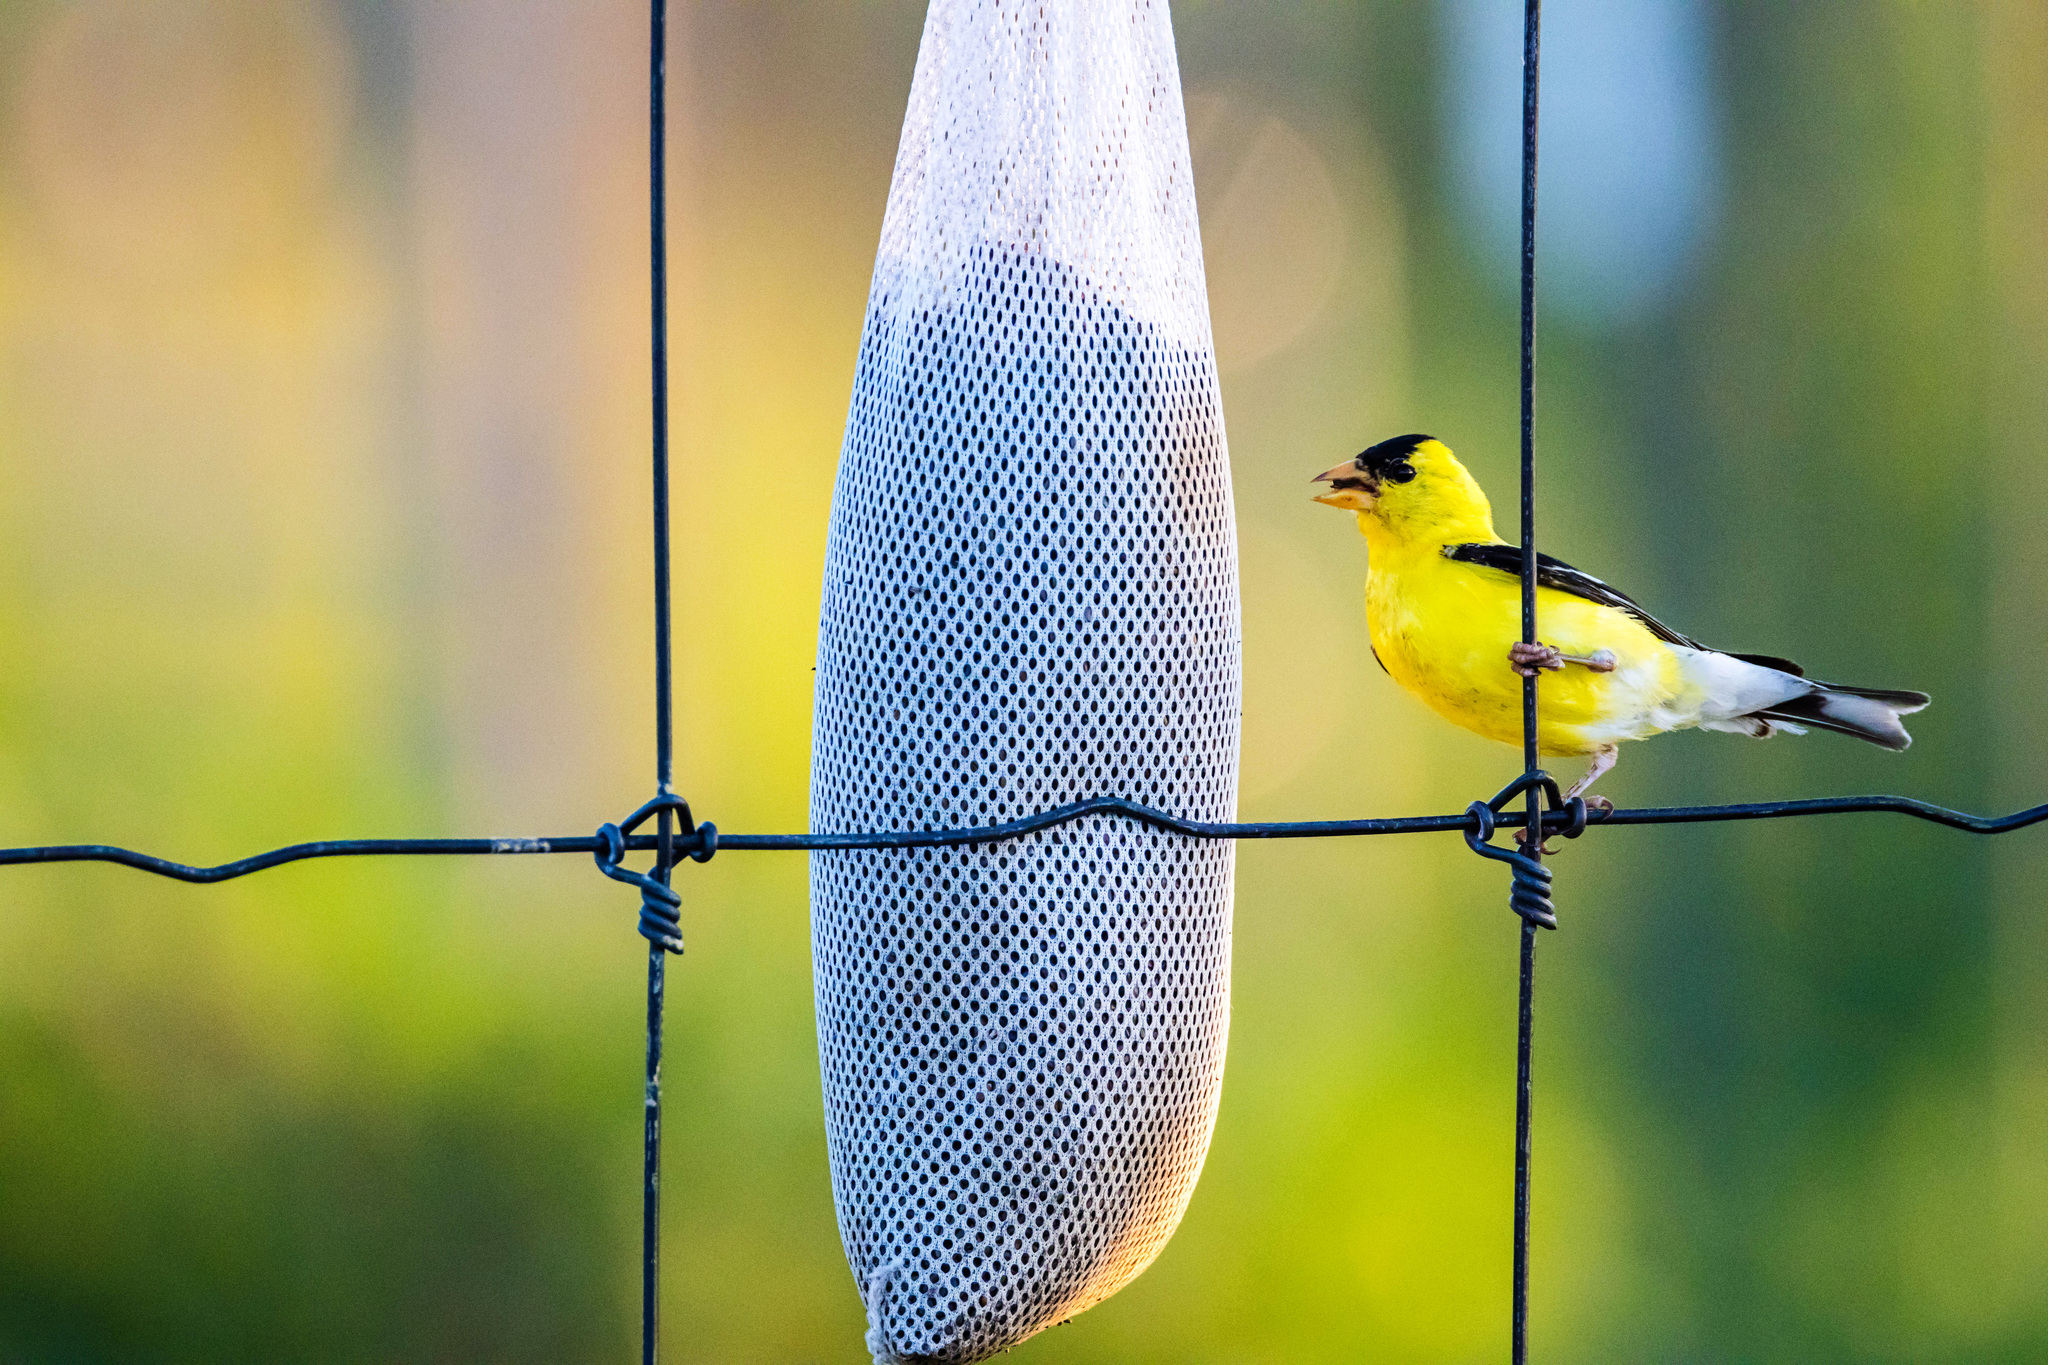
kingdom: Animalia
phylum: Chordata
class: Aves
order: Passeriformes
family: Fringillidae
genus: Spinus
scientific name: Spinus tristis
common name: American goldfinch
